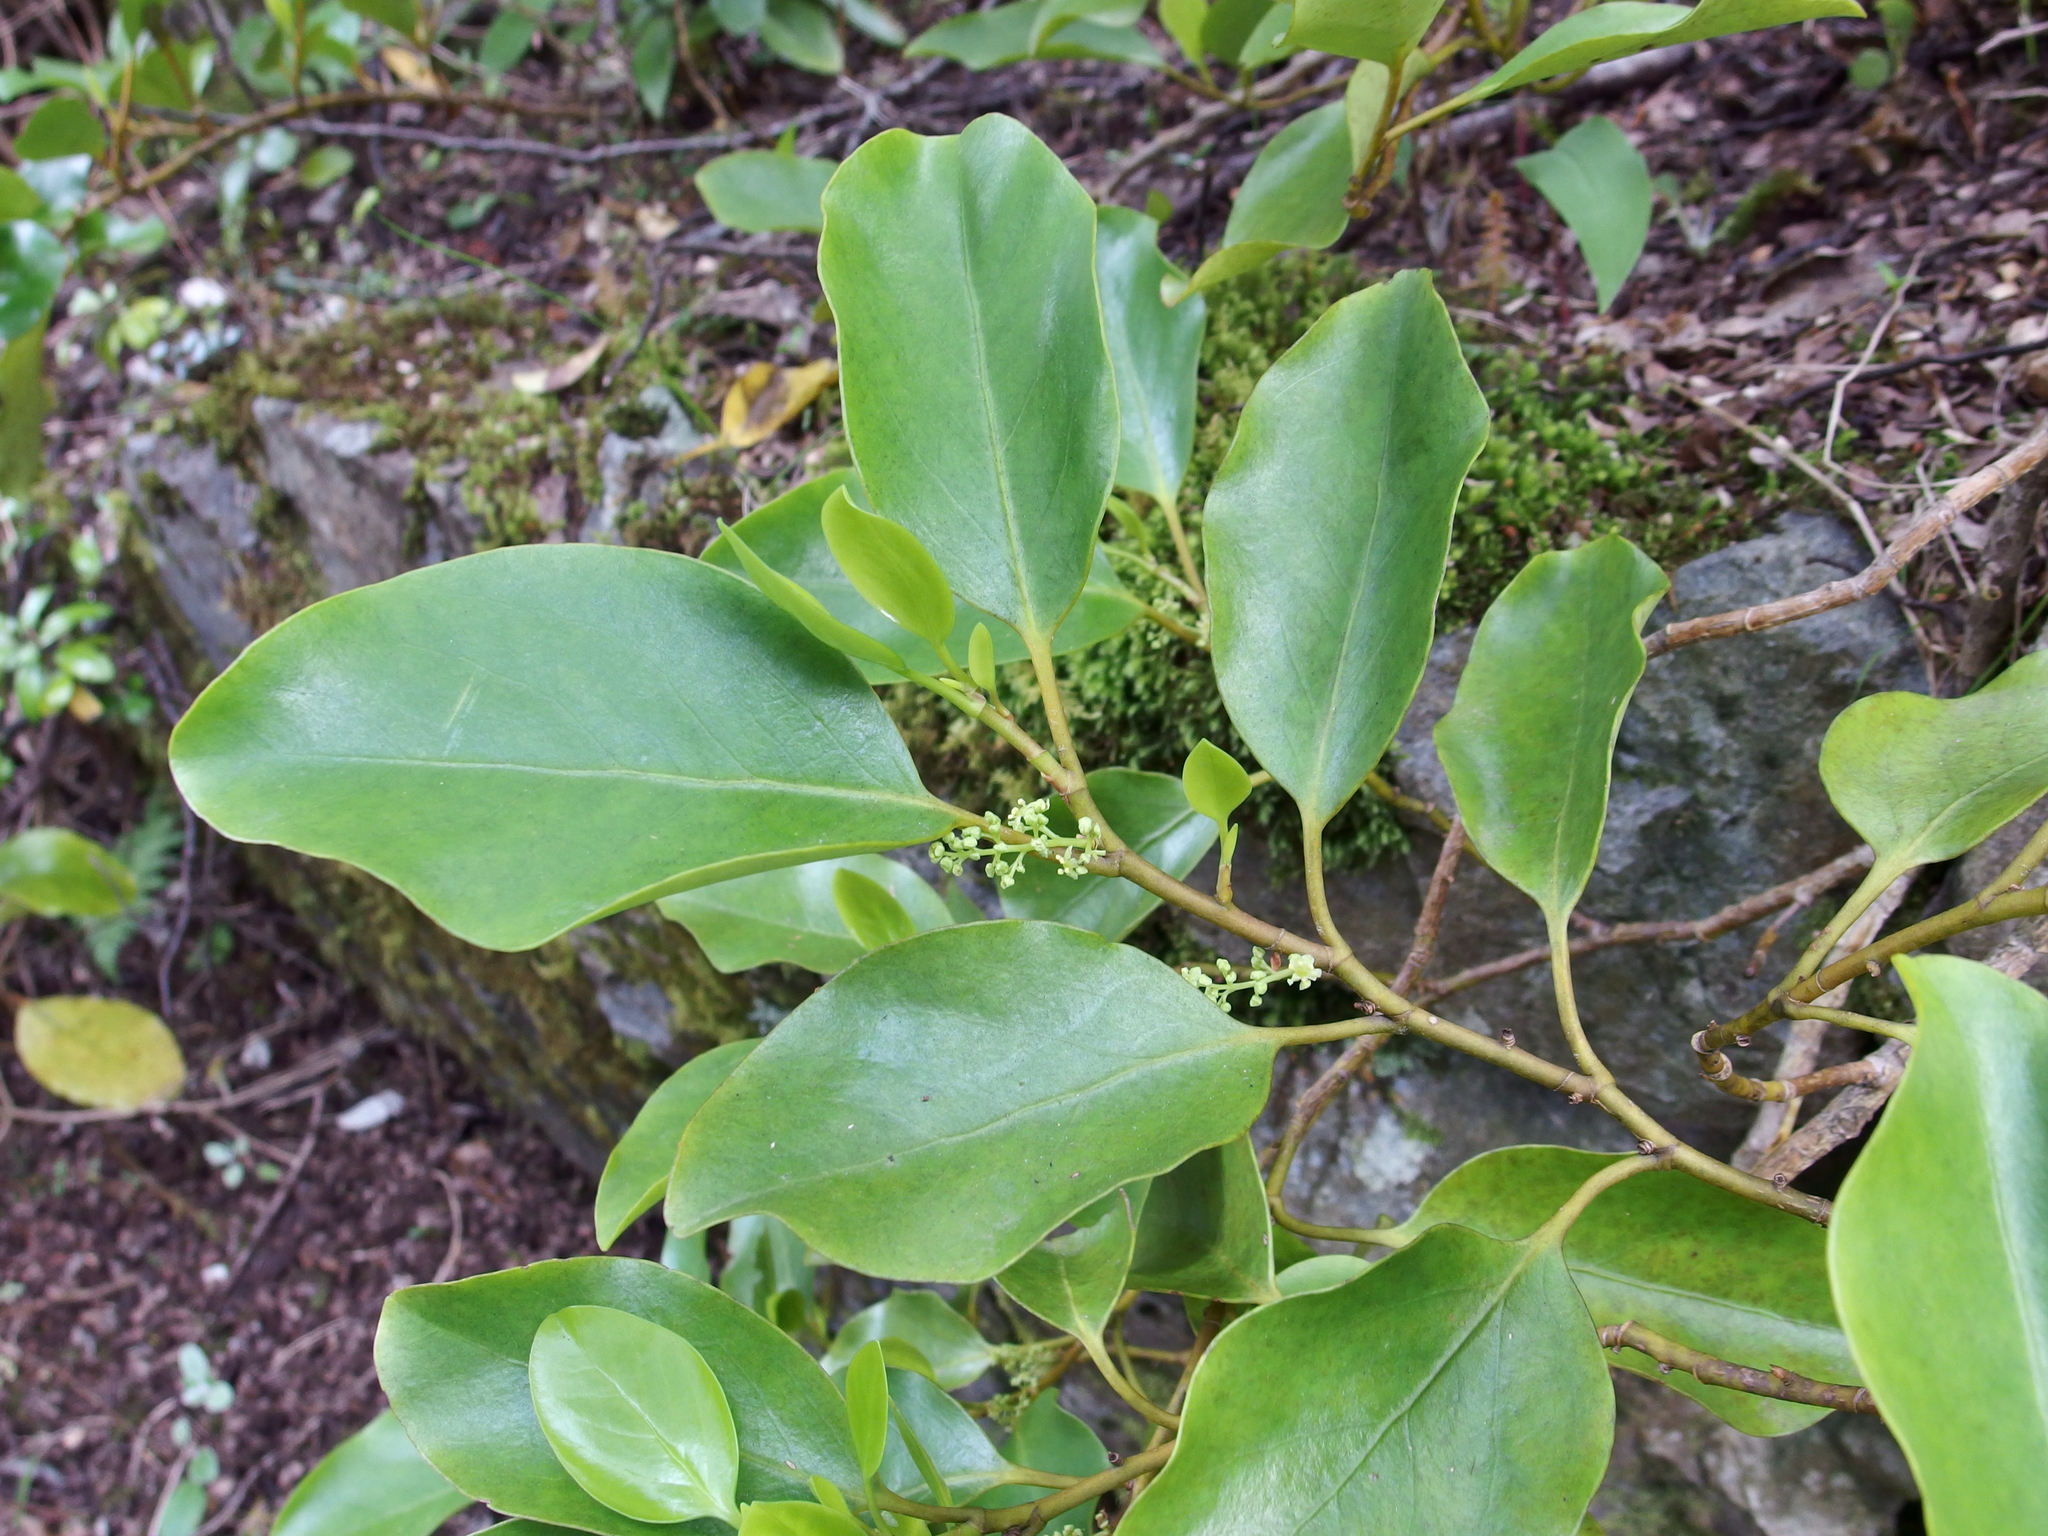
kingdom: Plantae
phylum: Tracheophyta
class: Magnoliopsida
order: Apiales
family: Griseliniaceae
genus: Griselinia
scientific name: Griselinia littoralis
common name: New zealand broadleaf
